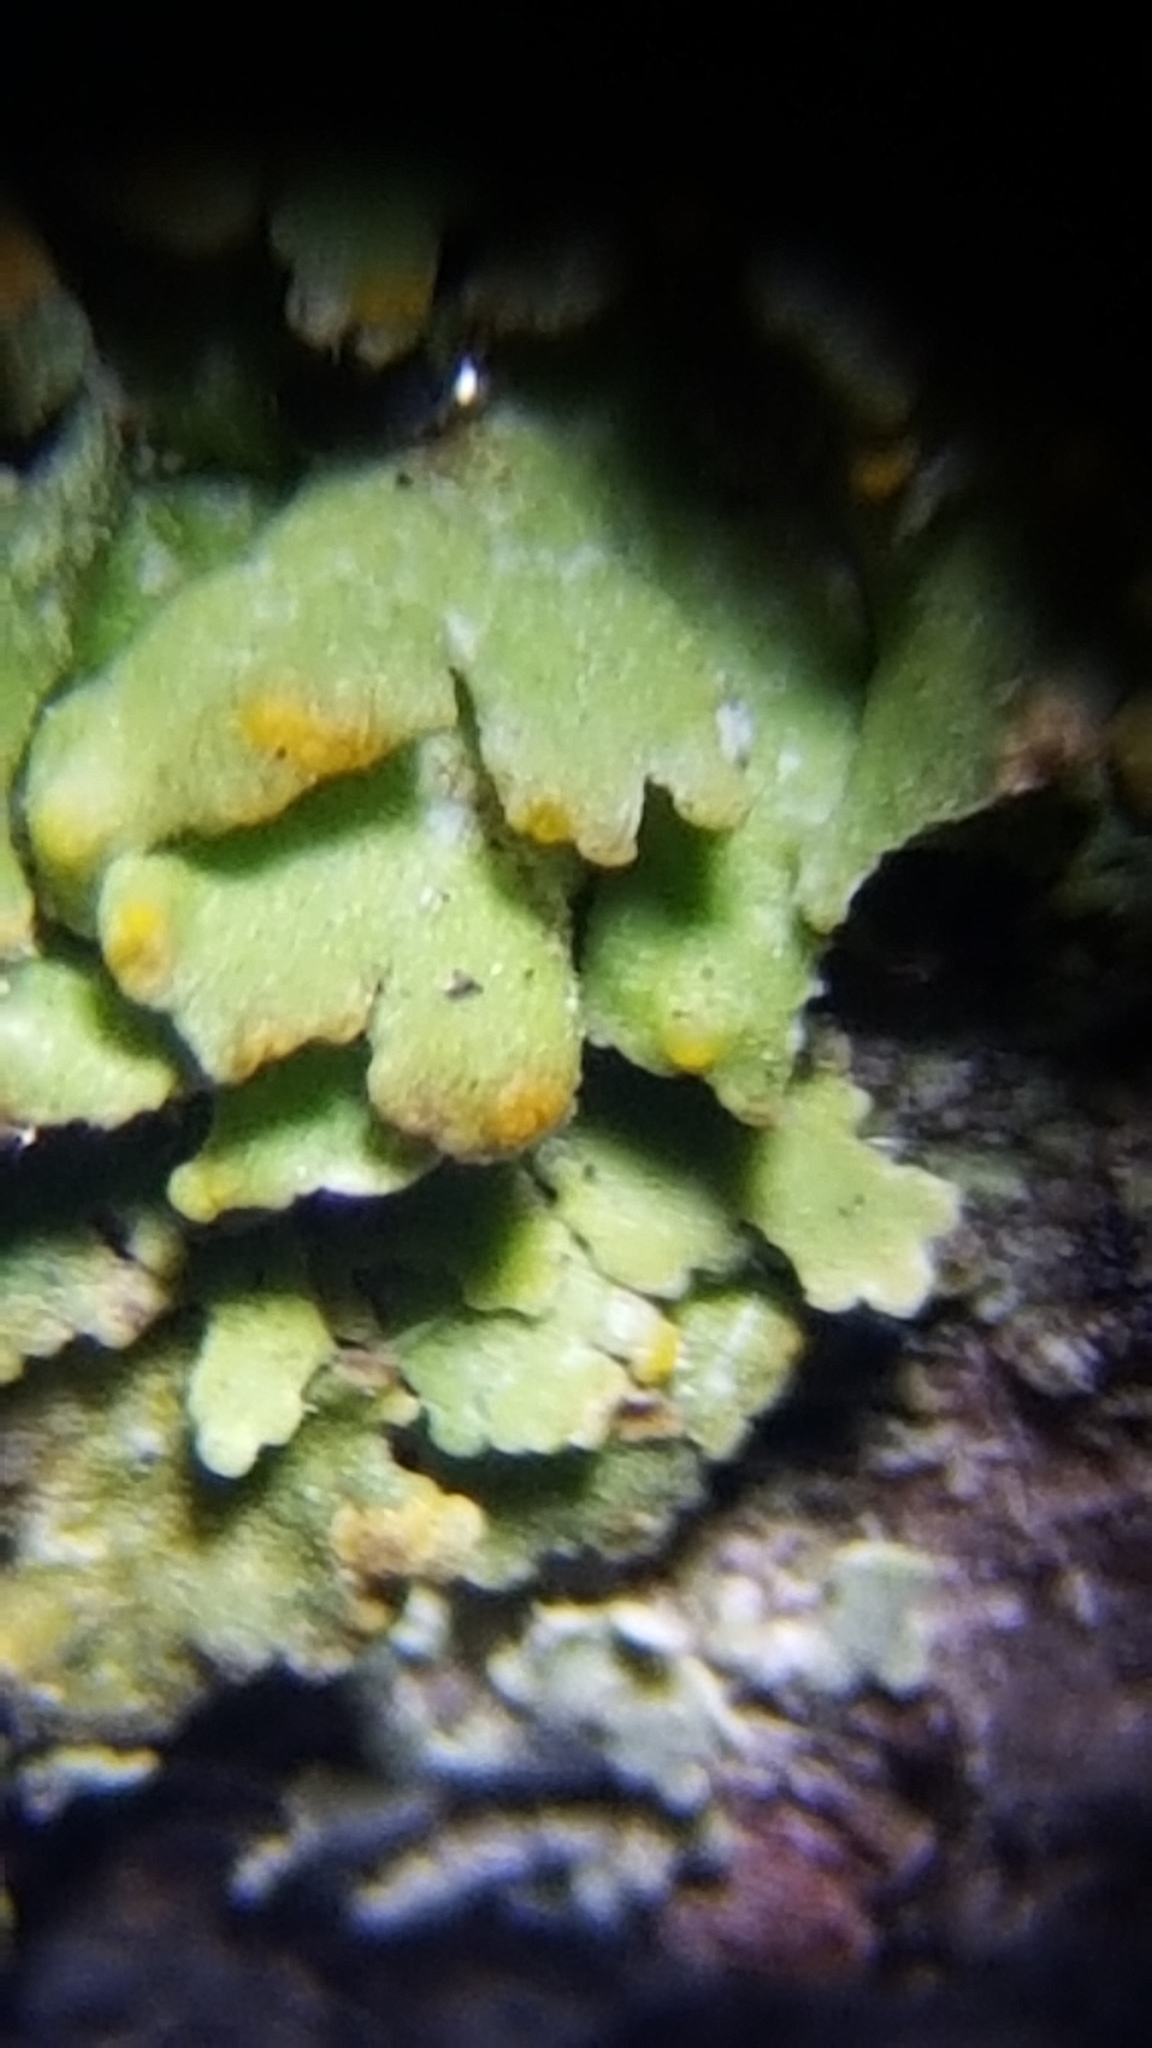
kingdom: Fungi
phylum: Ascomycota
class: Lecanoromycetes
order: Teloschistales
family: Teloschistaceae
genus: Gallowayella
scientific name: Gallowayella hasseana
